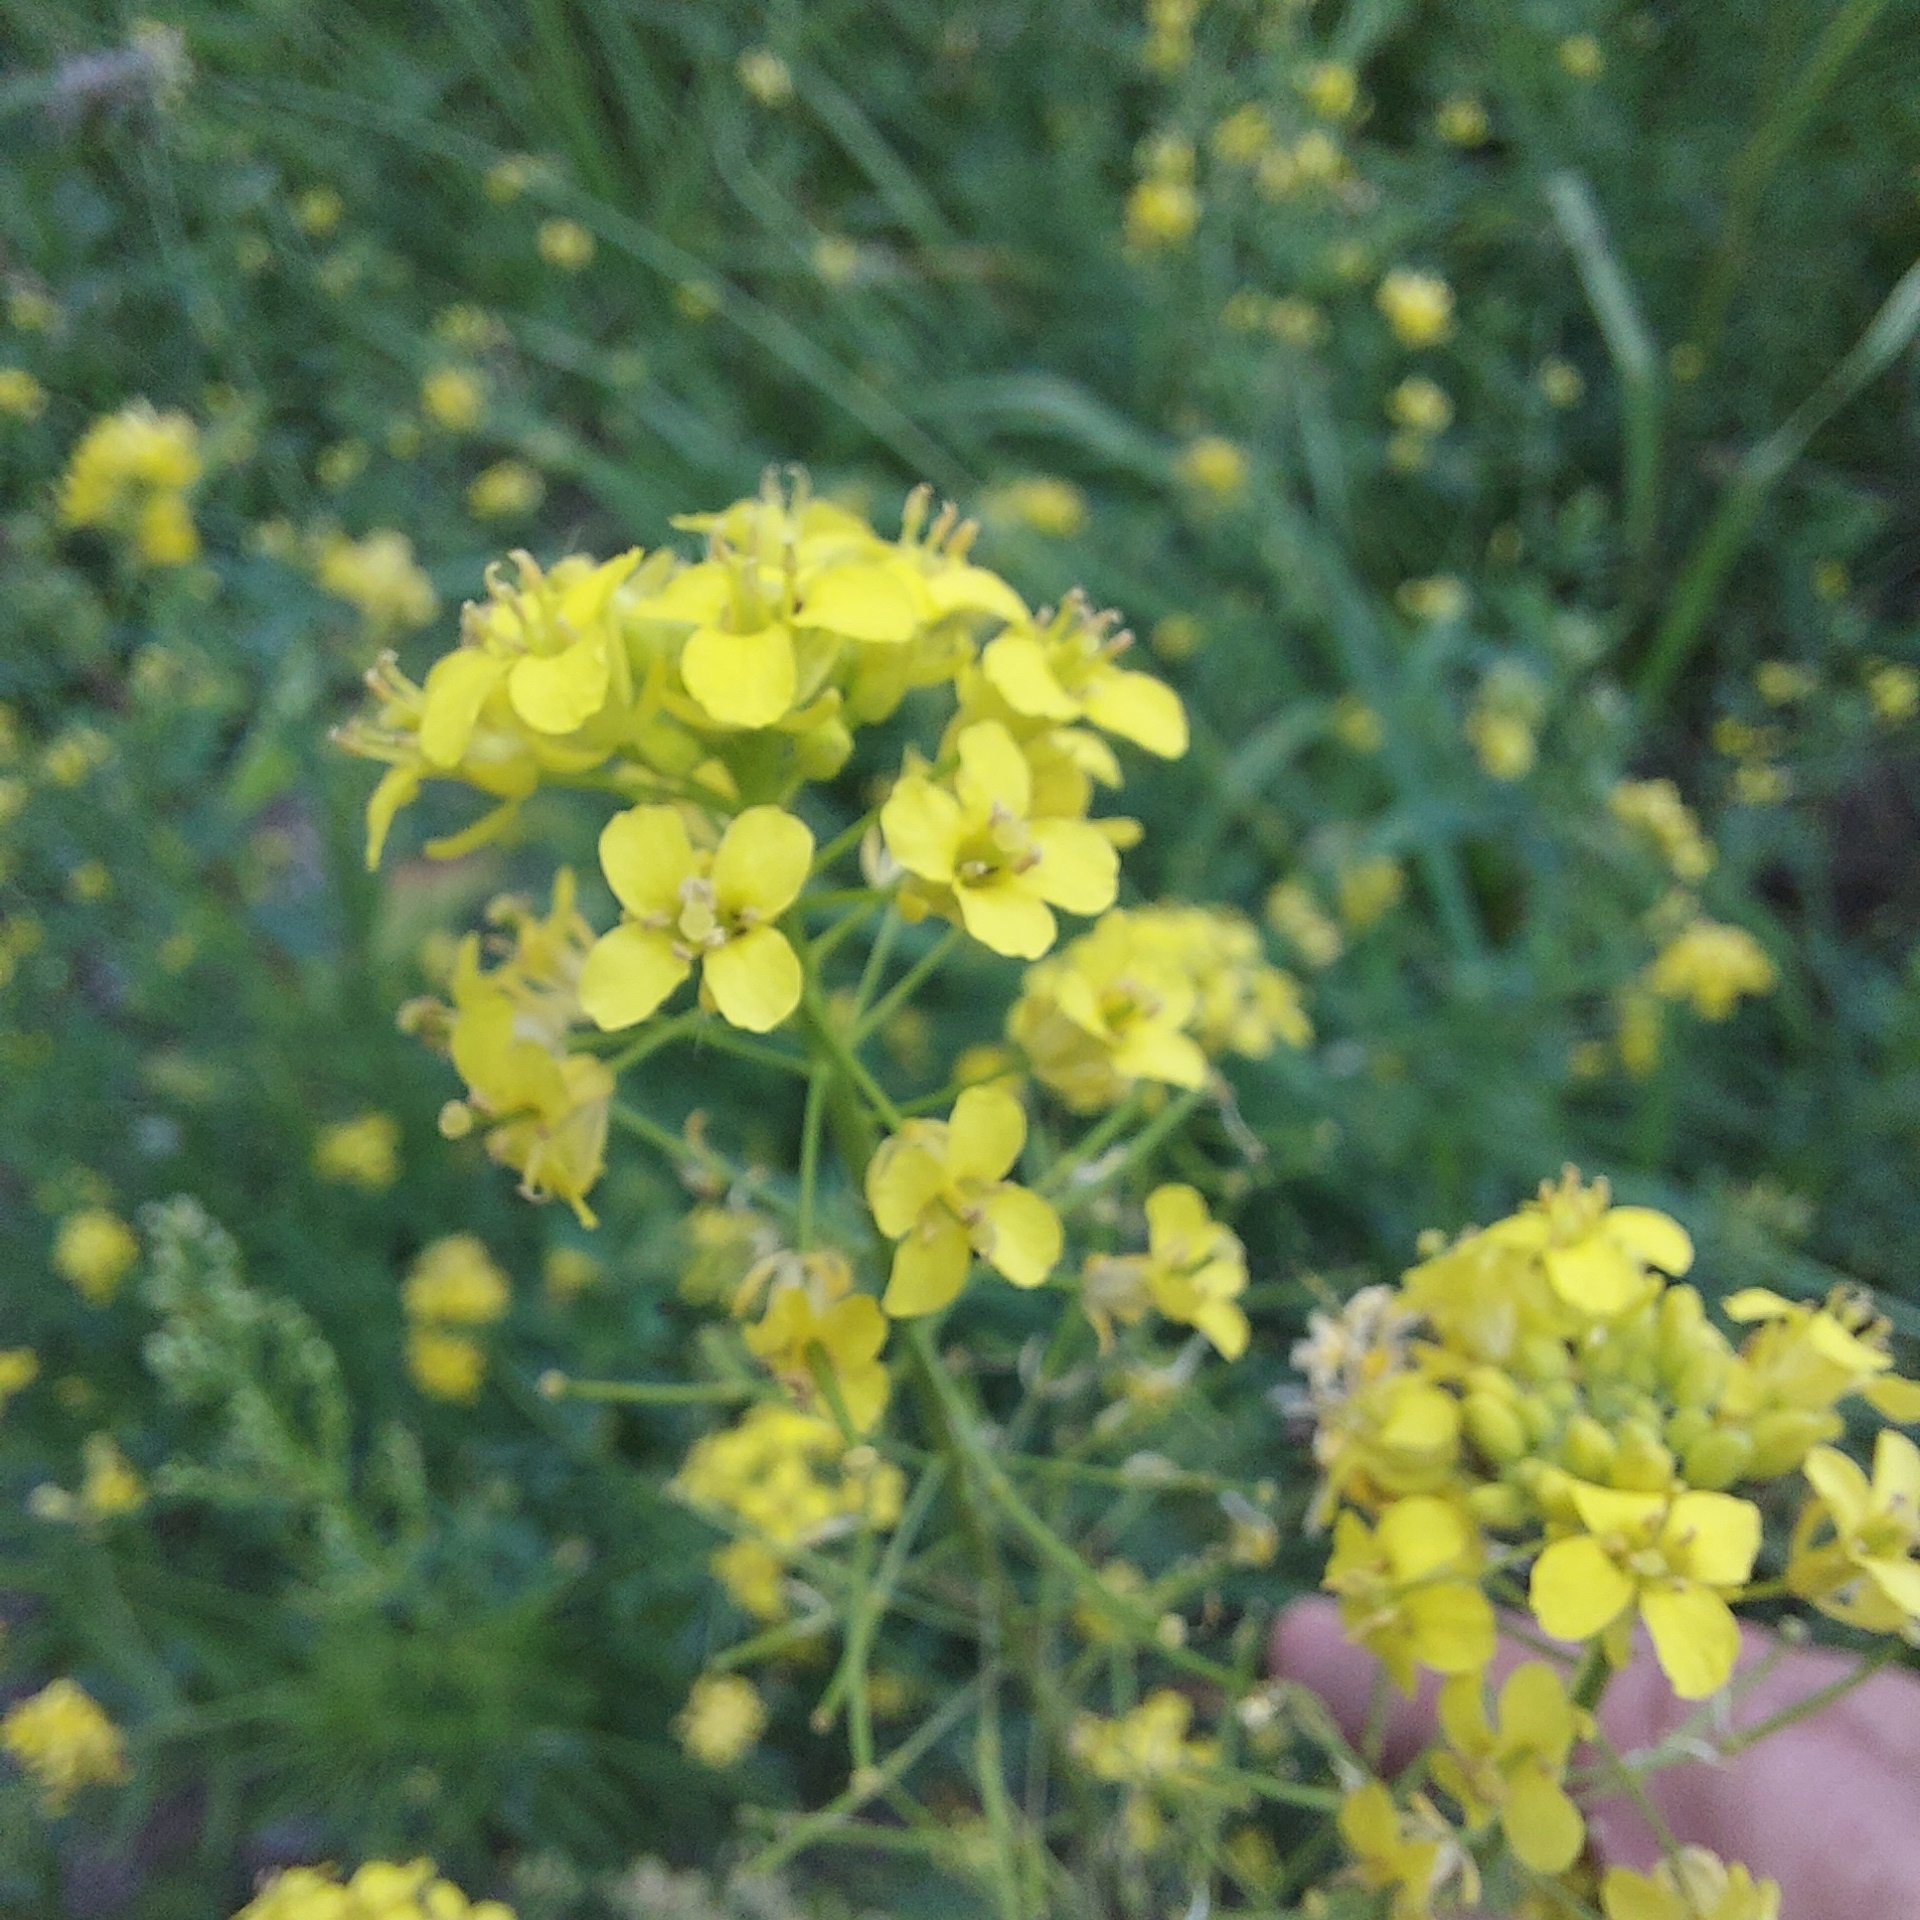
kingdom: Plantae
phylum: Tracheophyta
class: Magnoliopsida
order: Brassicales
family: Brassicaceae
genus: Sisymbrium
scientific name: Sisymbrium loeselii
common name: False london-rocket
